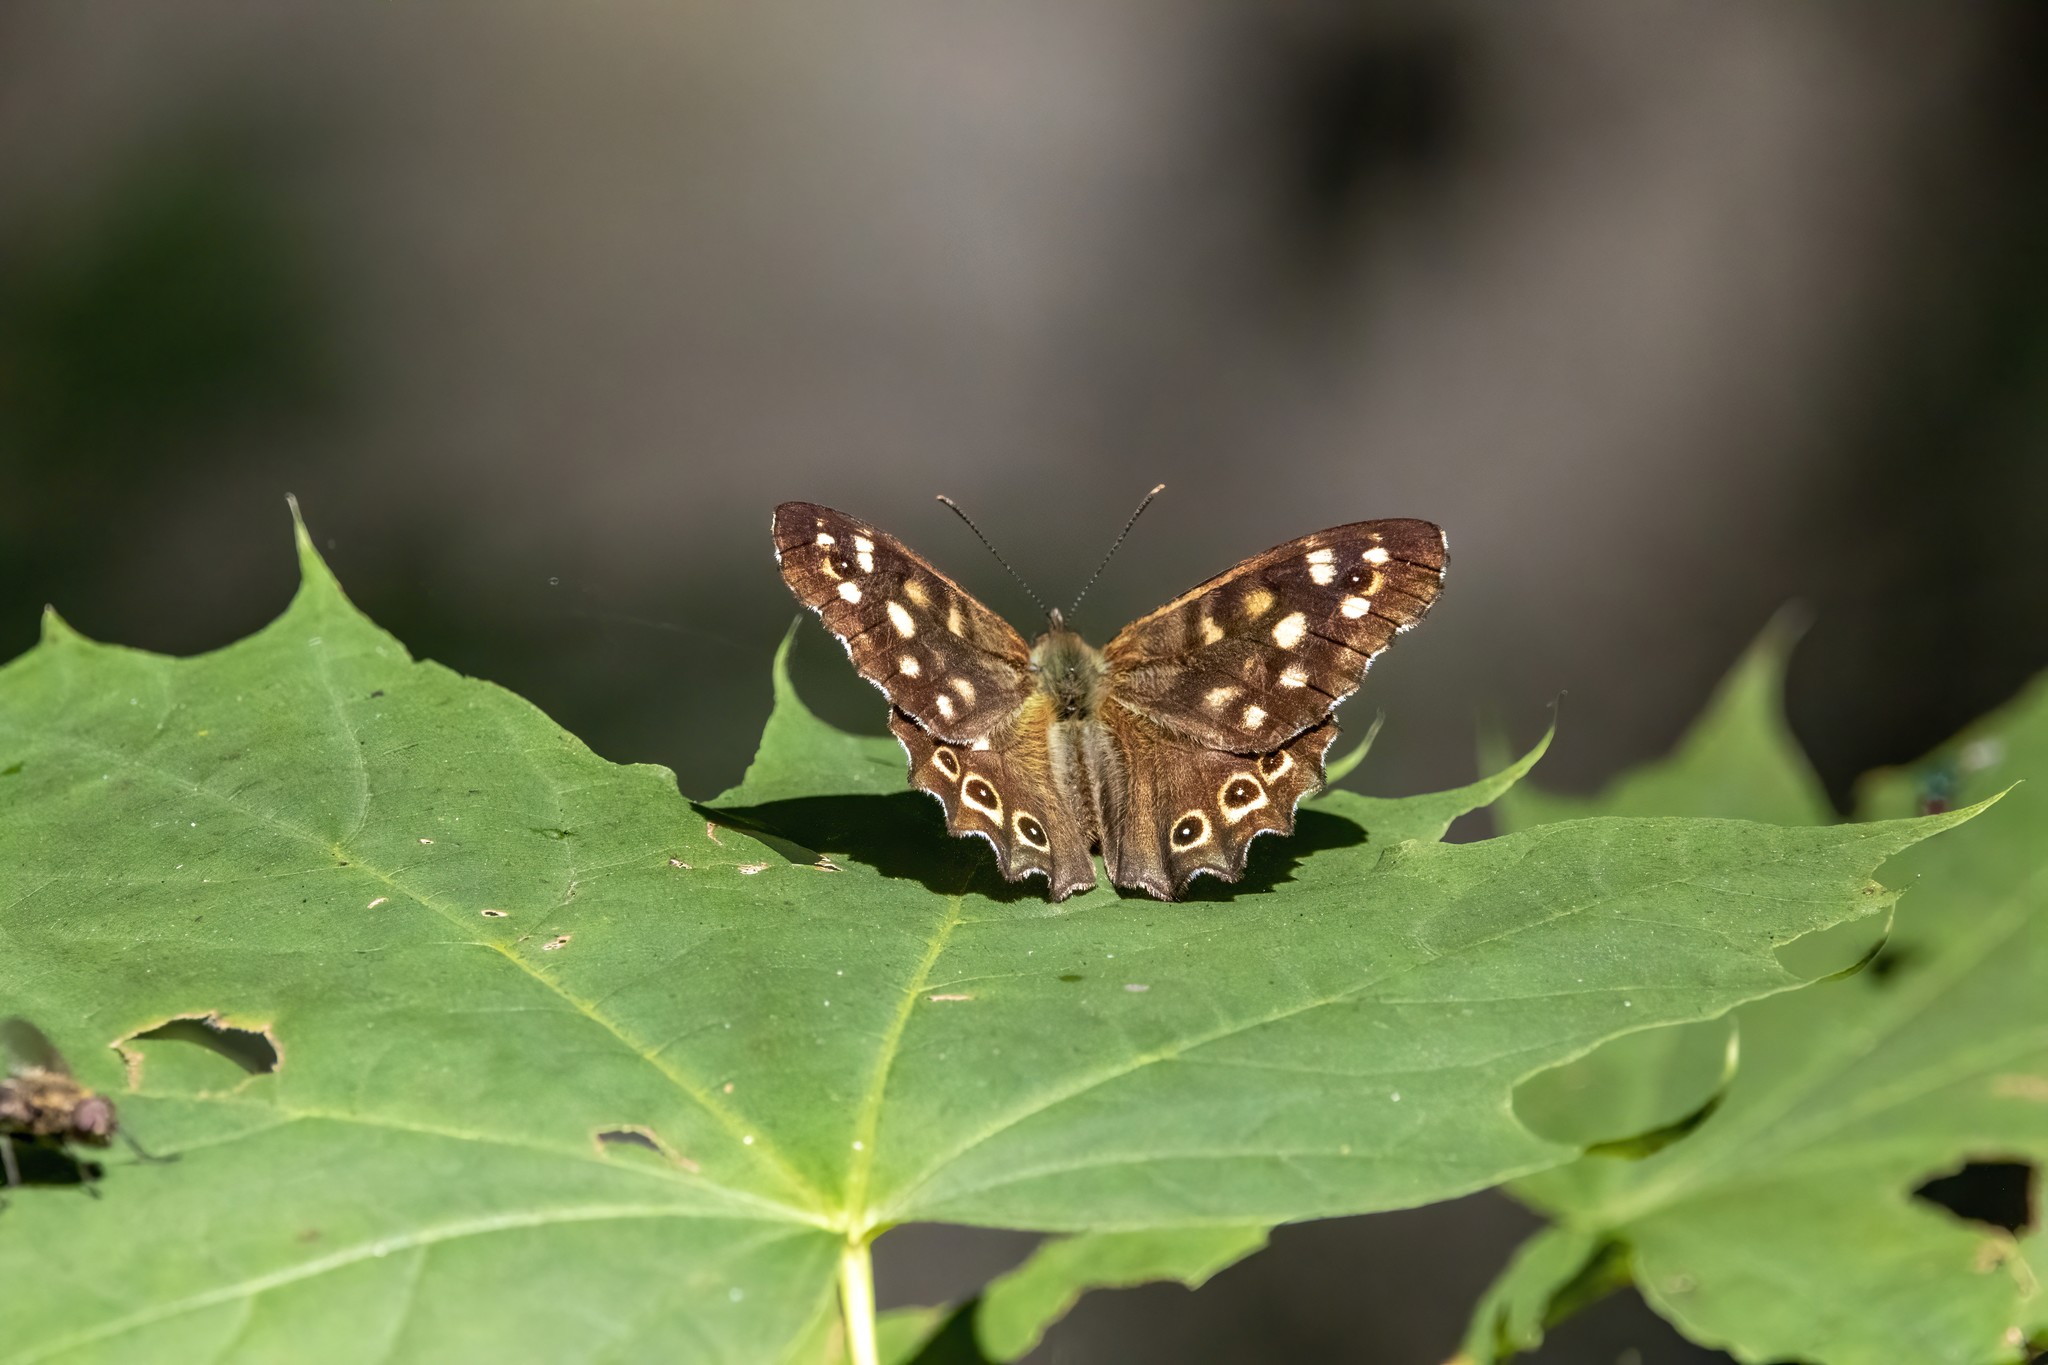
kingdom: Animalia
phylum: Arthropoda
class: Insecta
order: Lepidoptera
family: Nymphalidae
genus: Pararge
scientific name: Pararge aegeria
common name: Speckled wood
